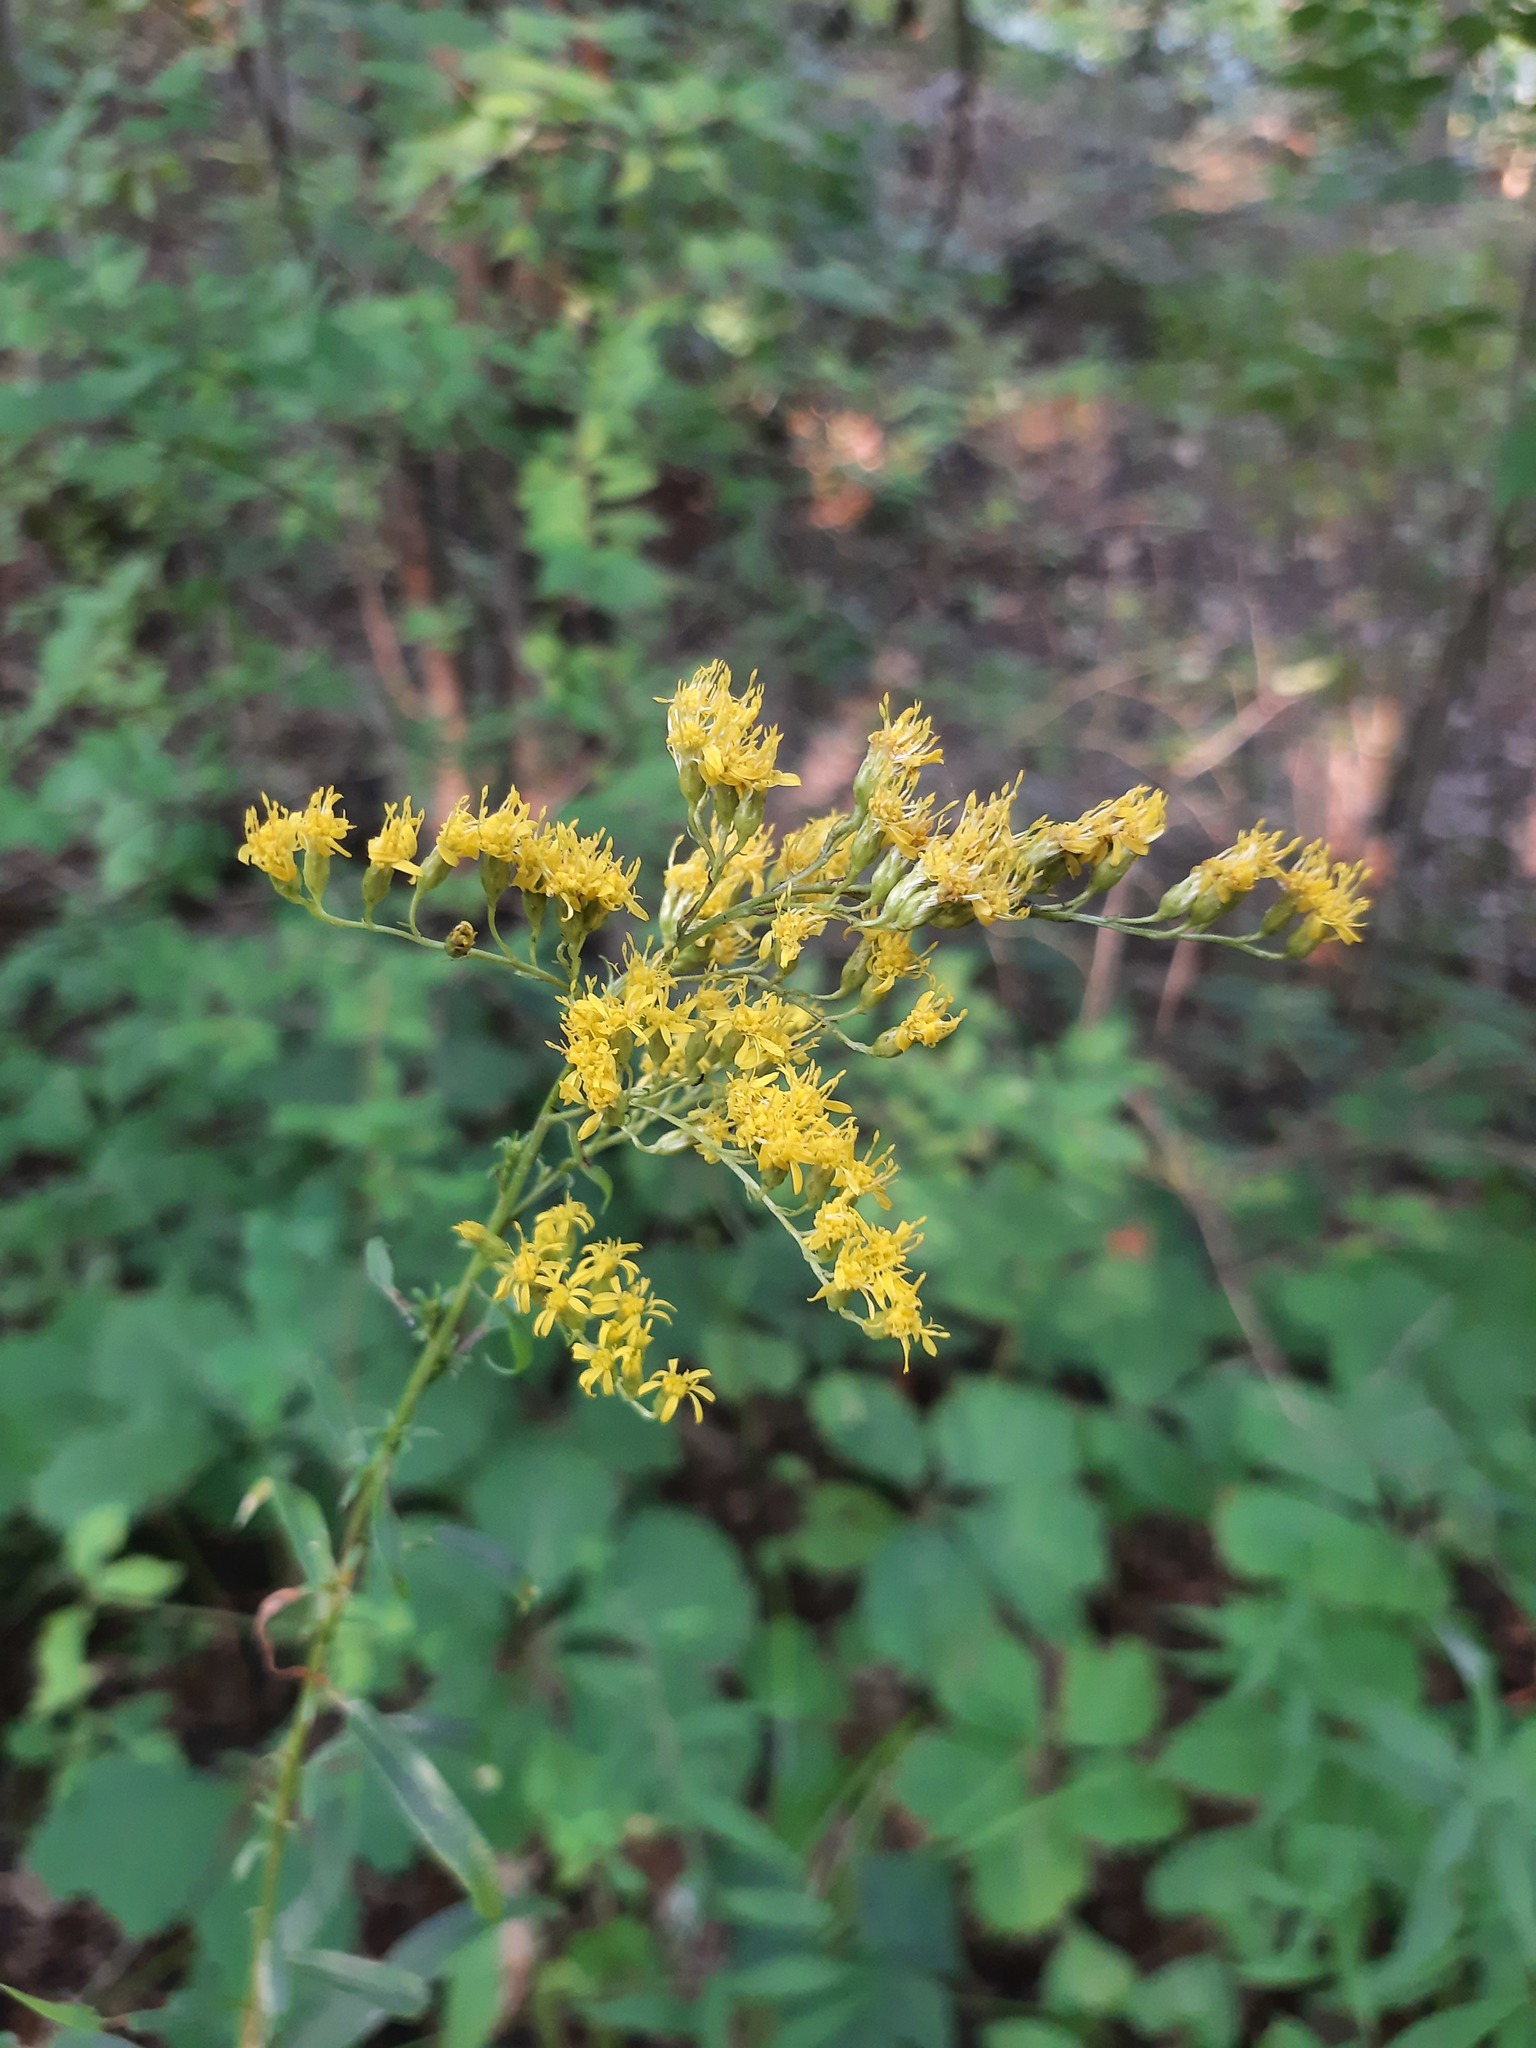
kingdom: Plantae
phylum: Tracheophyta
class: Magnoliopsida
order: Asterales
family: Asteraceae
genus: Solidago
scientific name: Solidago juncea
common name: Early goldenrod
